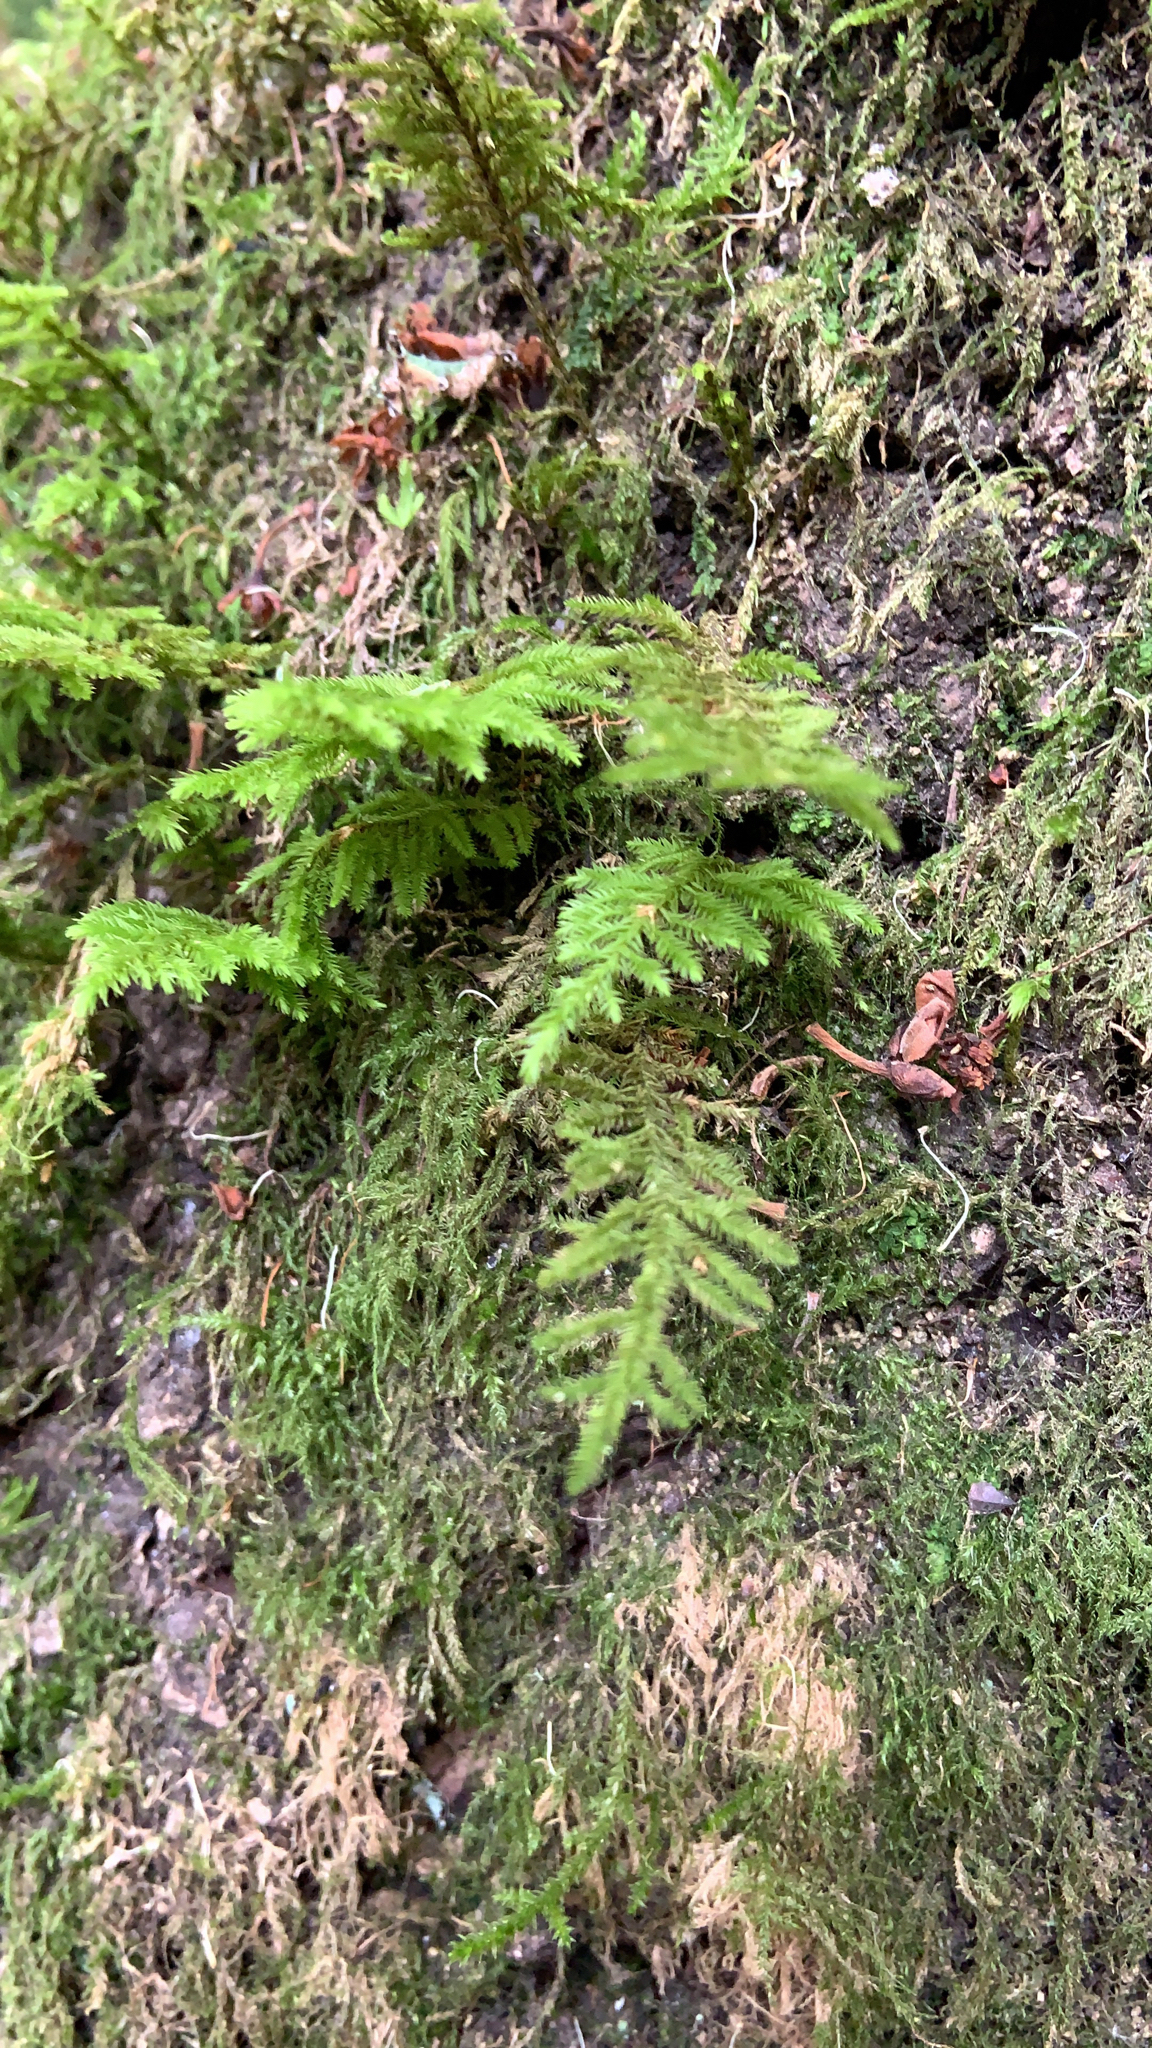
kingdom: Plantae
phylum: Bryophyta
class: Bryopsida
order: Hypnales
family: Cryphaeaceae
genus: Dendroalsia
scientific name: Dendroalsia abietina
